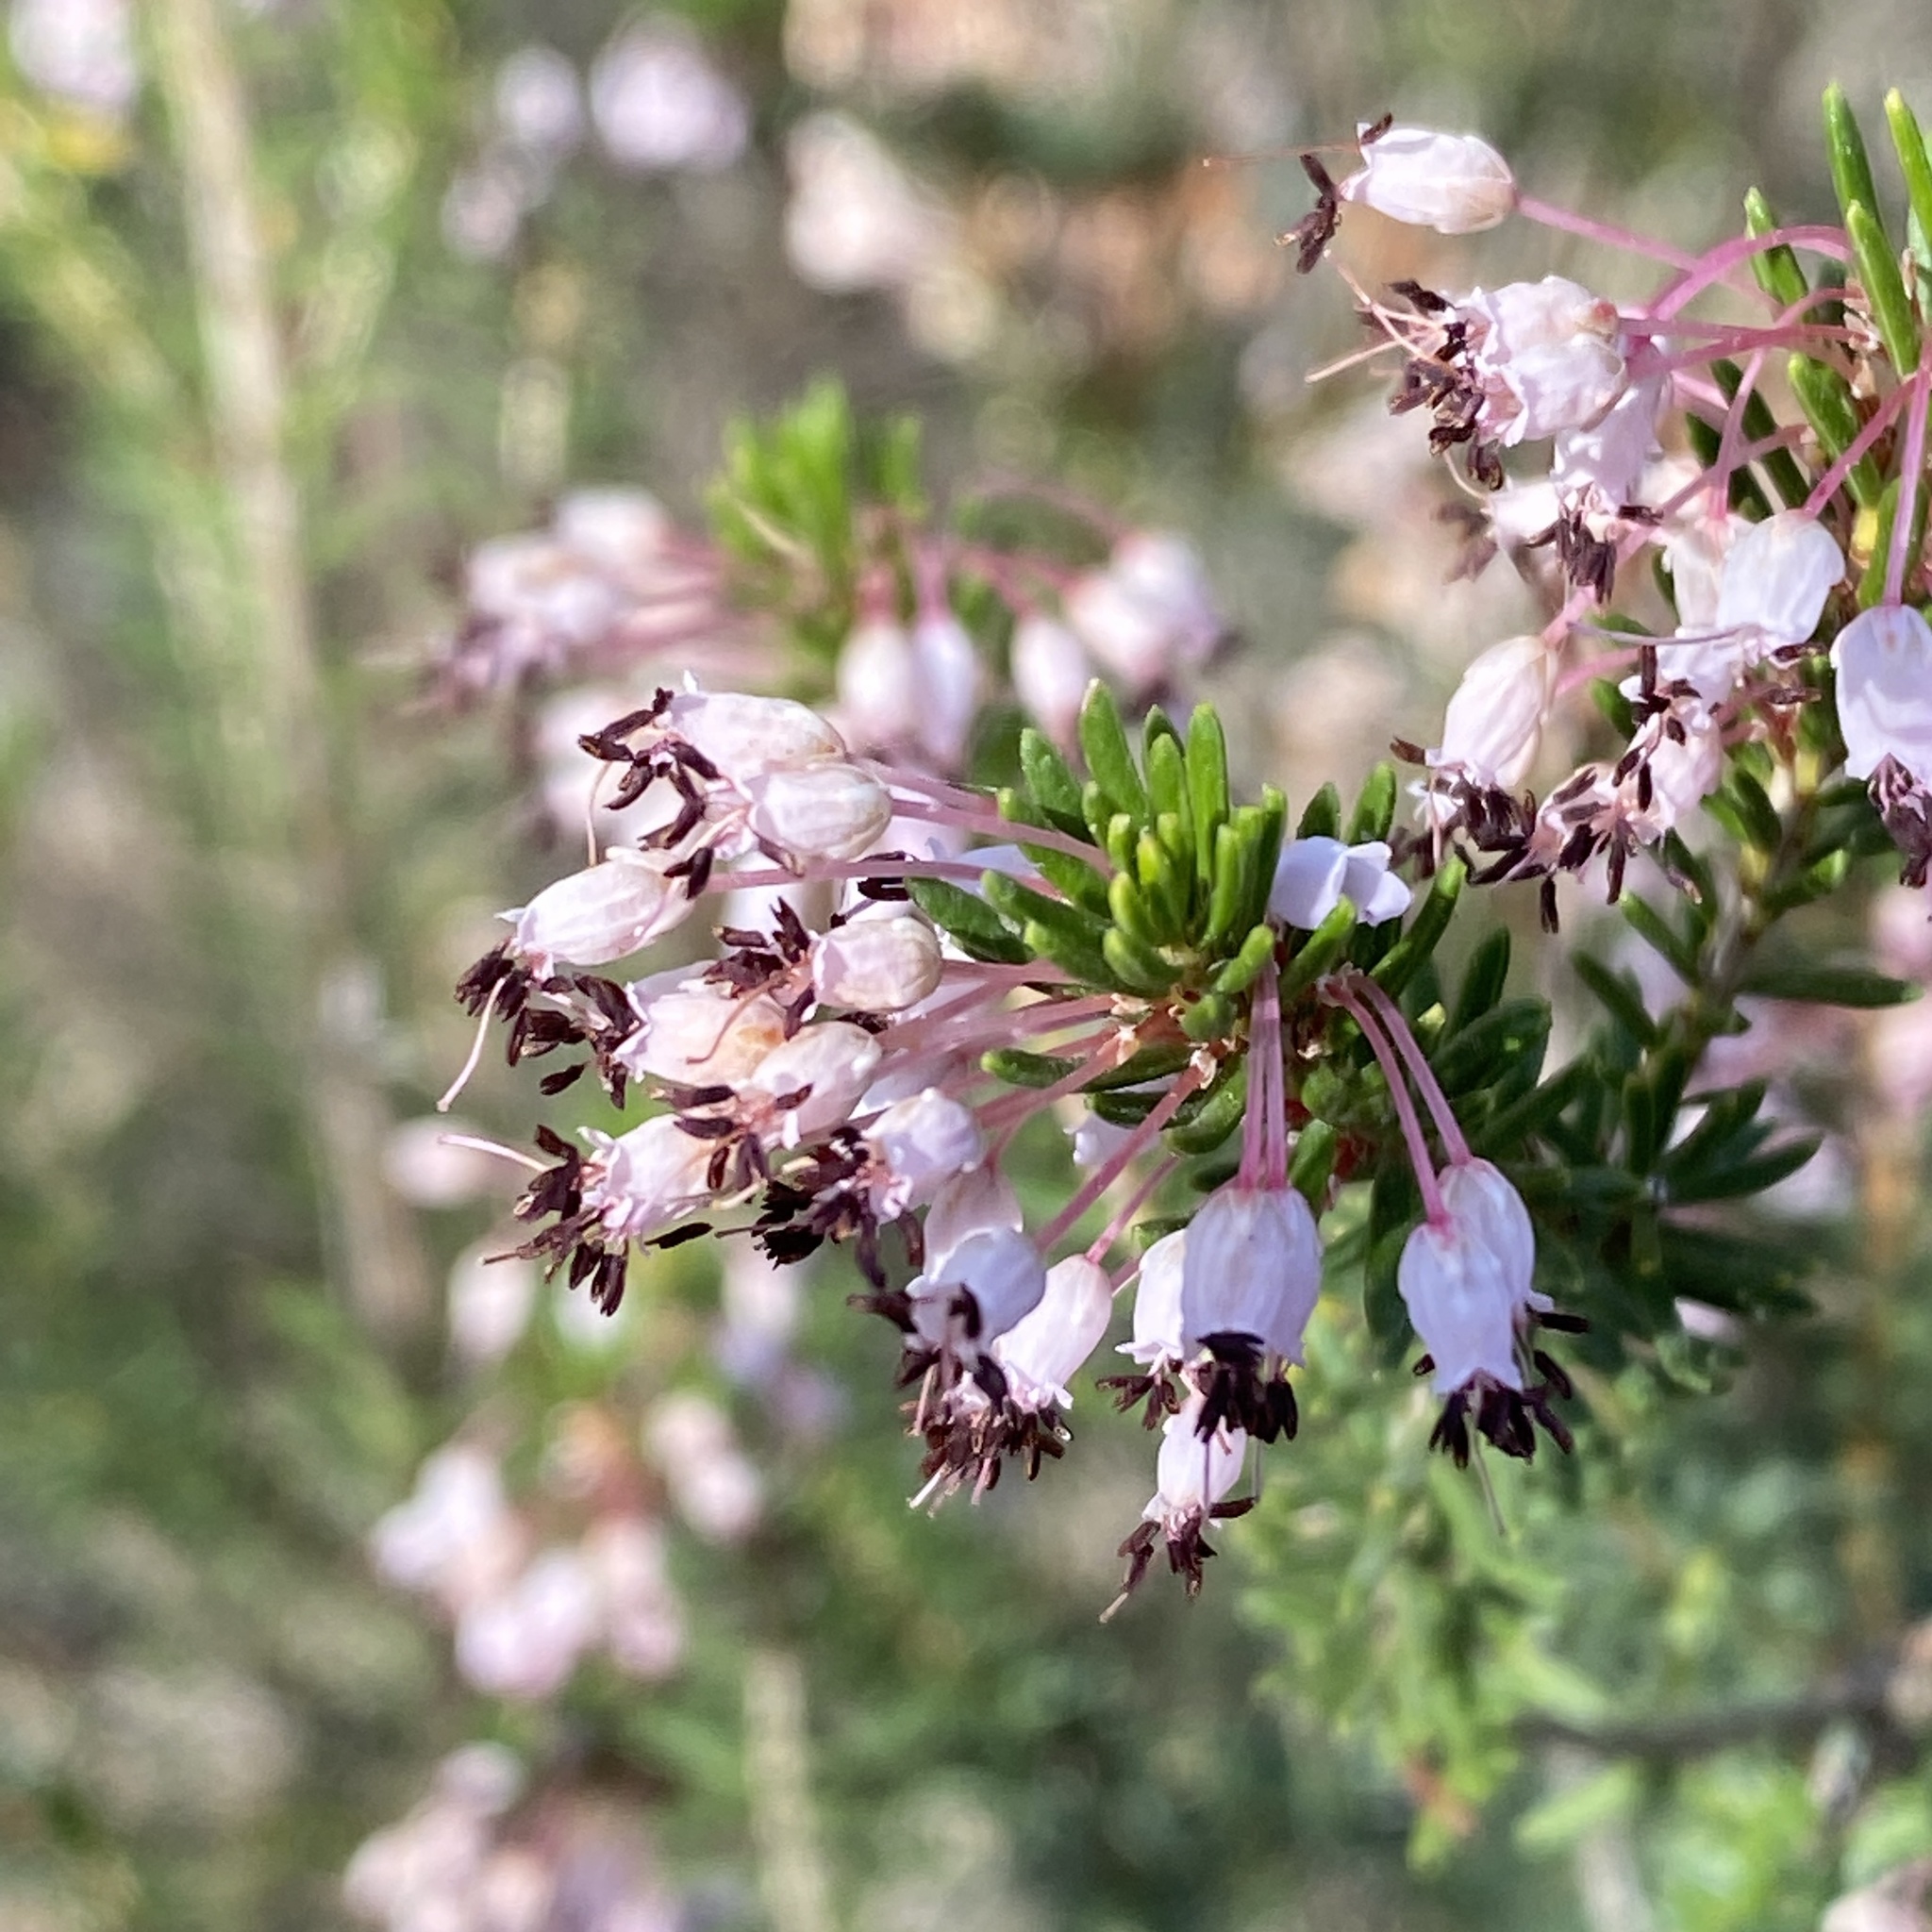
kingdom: Plantae
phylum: Tracheophyta
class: Magnoliopsida
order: Ericales
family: Ericaceae
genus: Erica
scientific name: Erica multiflora
